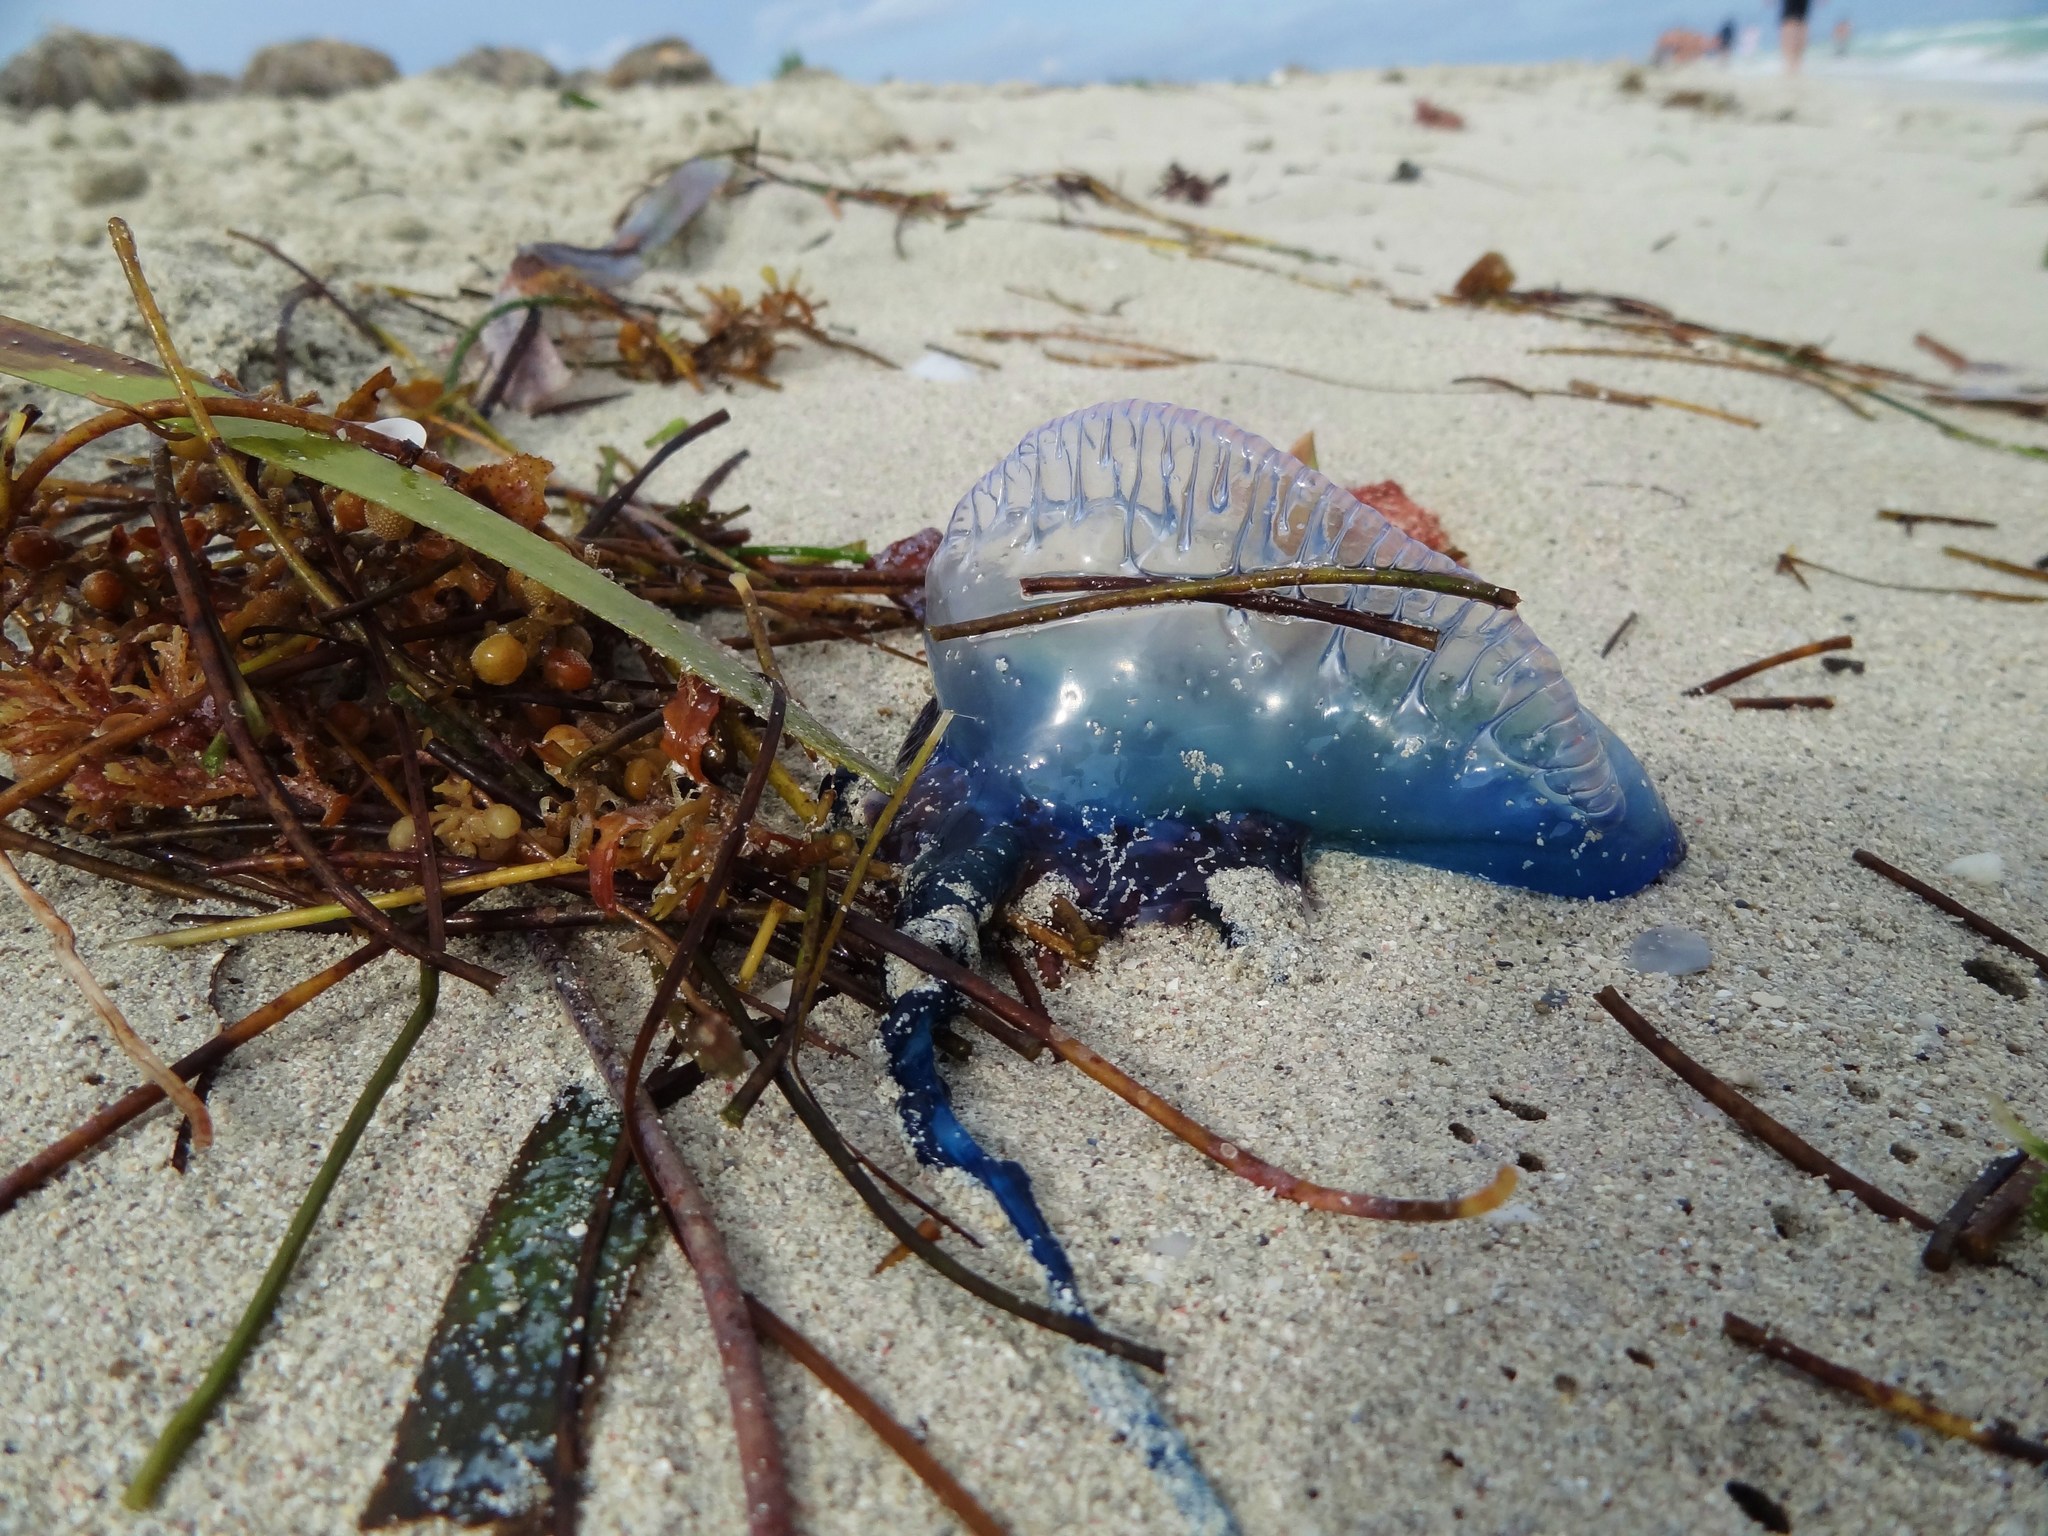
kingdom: Animalia
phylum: Cnidaria
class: Hydrozoa
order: Siphonophorae
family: Physaliidae
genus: Physalia
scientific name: Physalia physalis
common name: Portuguese man-of-war
